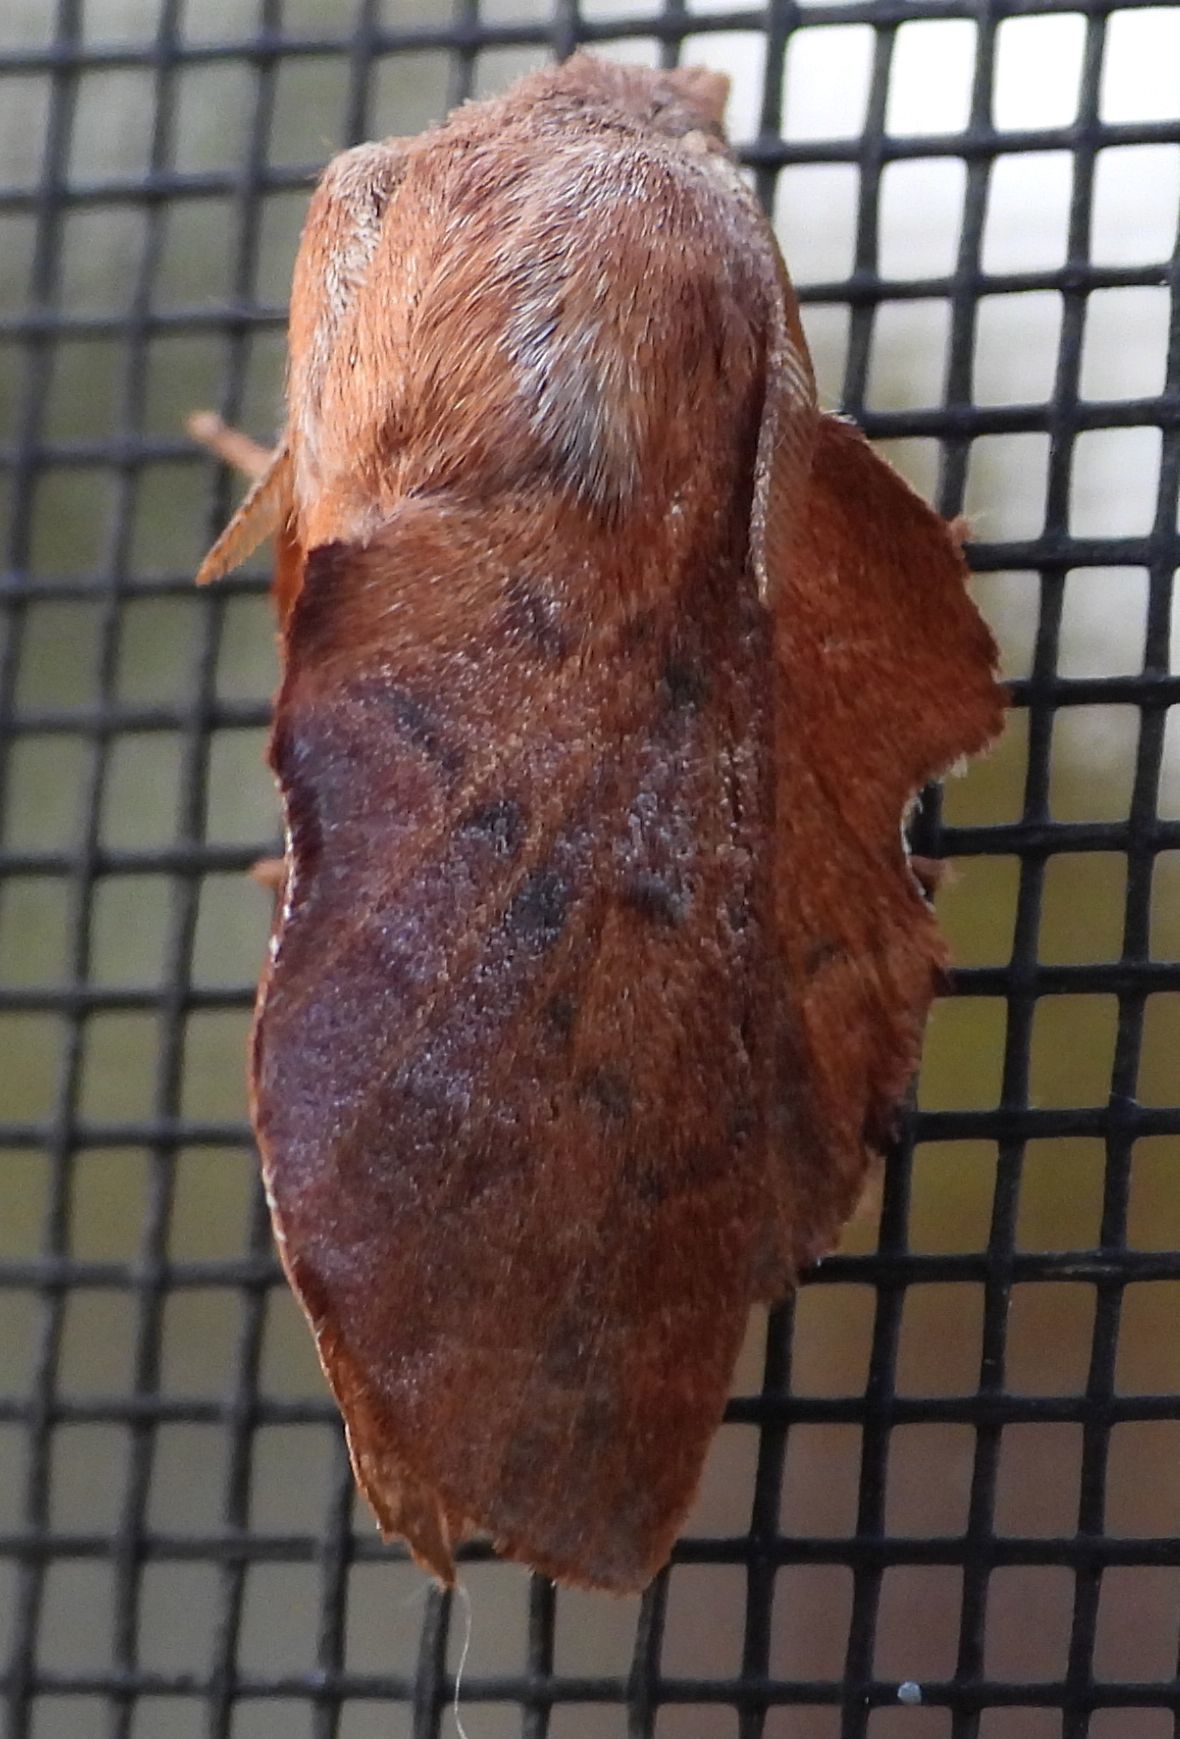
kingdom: Animalia
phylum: Arthropoda
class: Insecta
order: Lepidoptera
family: Lasiocampidae
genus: Phyllodesma
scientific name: Phyllodesma americana
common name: American lappet moth
